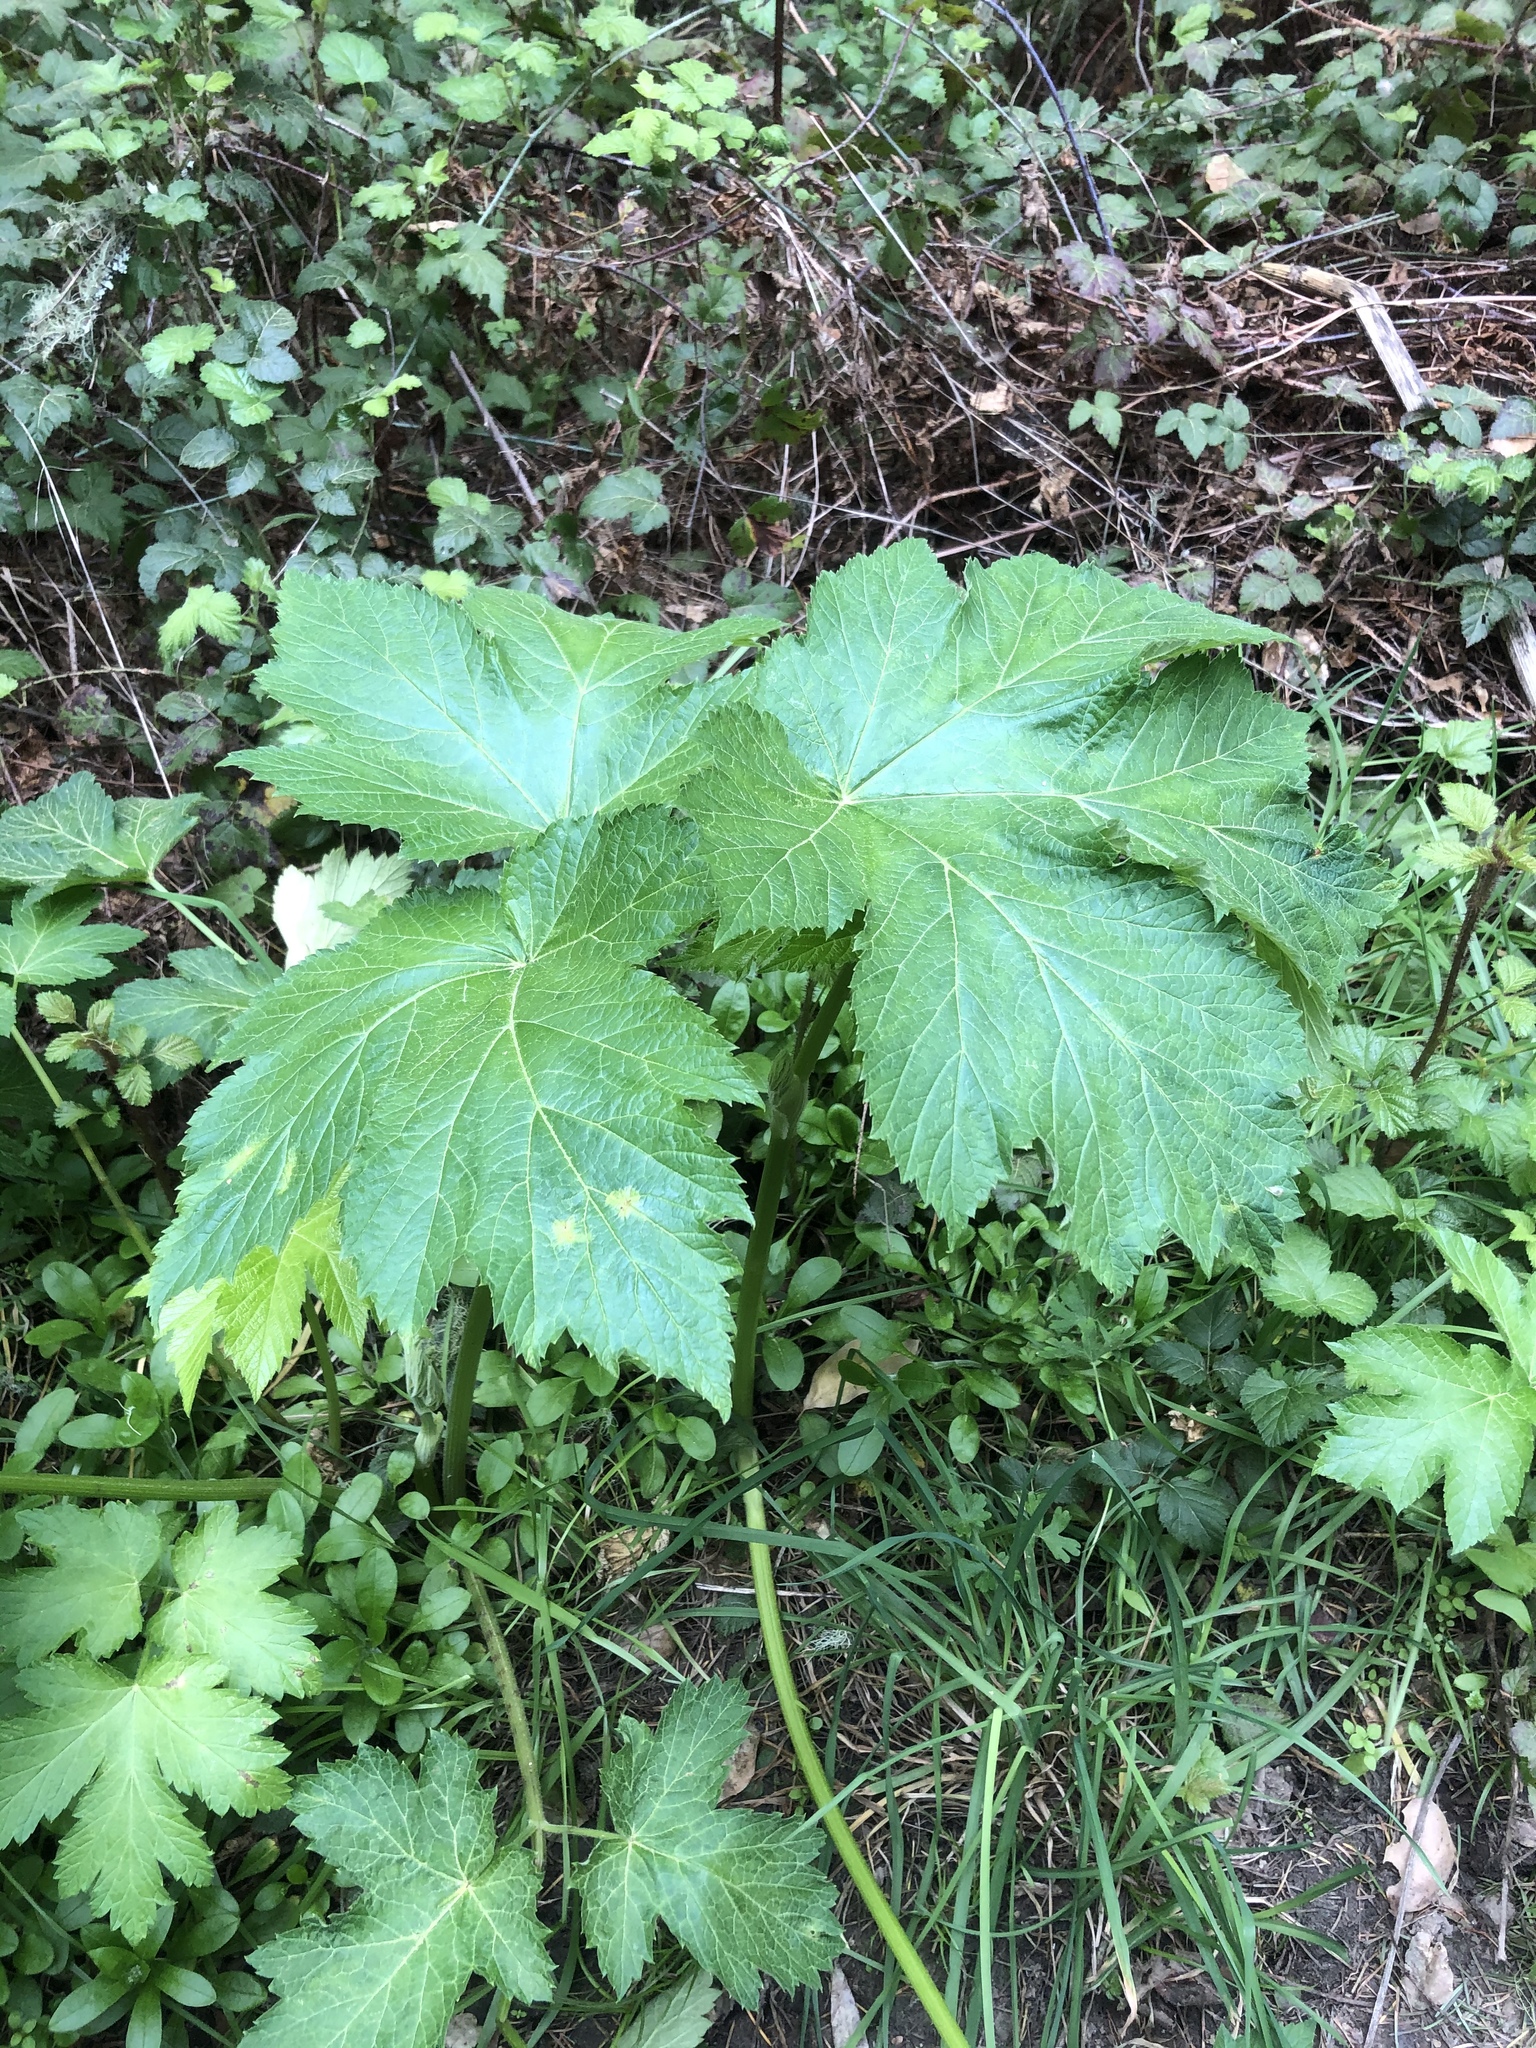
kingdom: Plantae
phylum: Tracheophyta
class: Magnoliopsida
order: Apiales
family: Apiaceae
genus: Heracleum
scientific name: Heracleum maximum
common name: American cow parsnip
